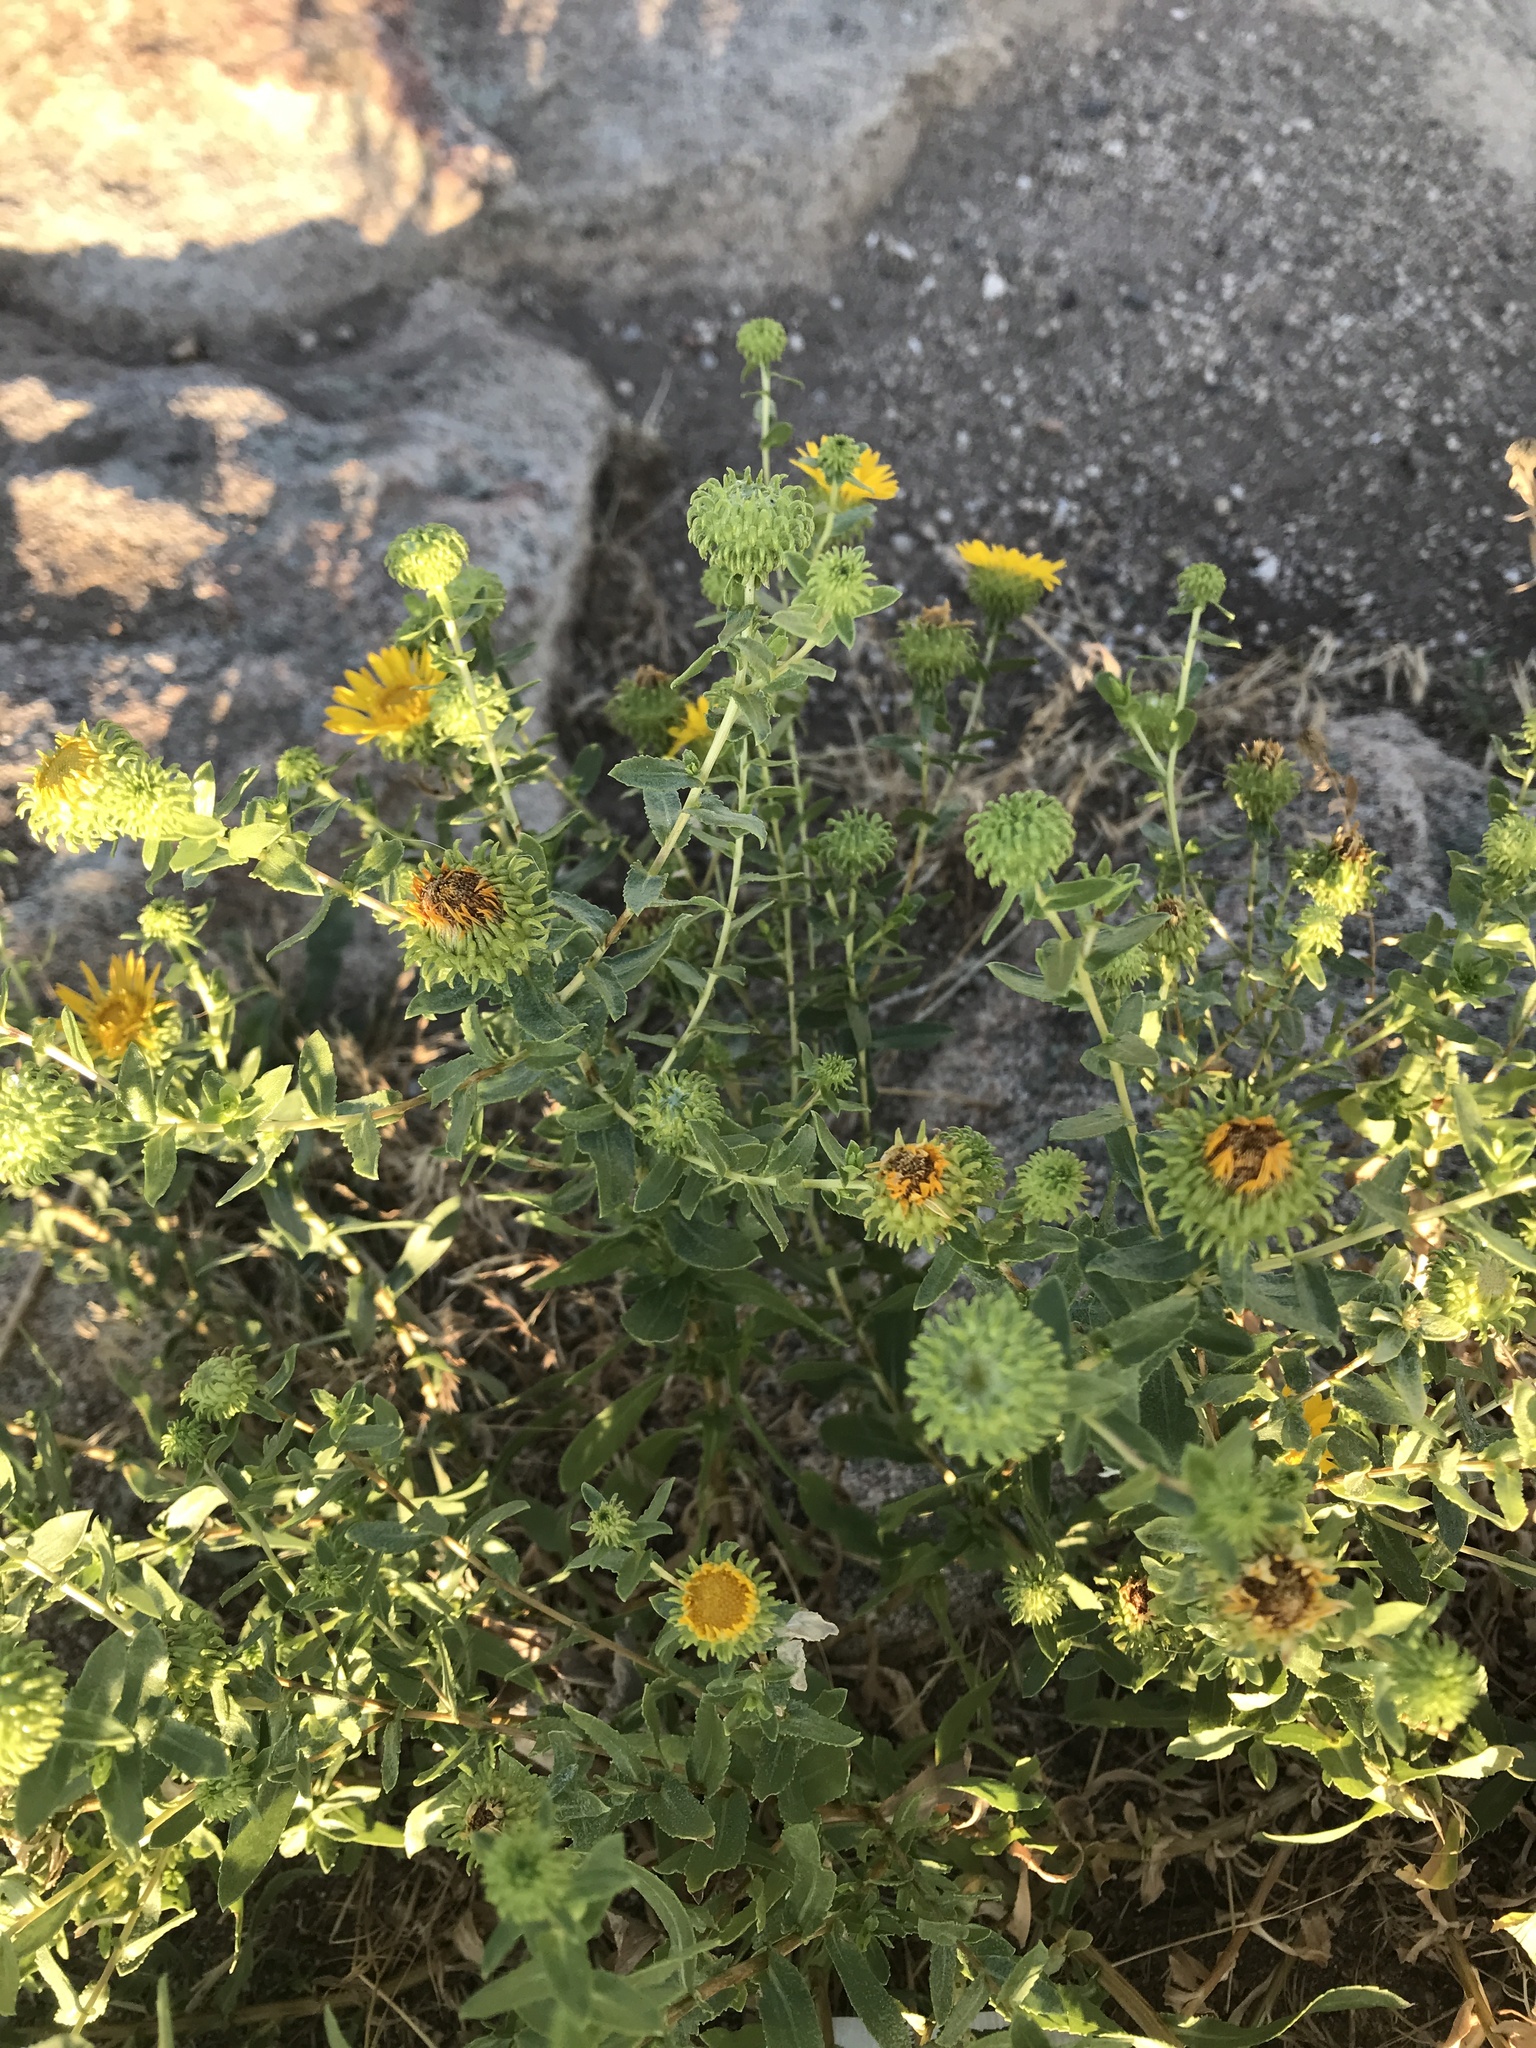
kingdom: Plantae
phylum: Tracheophyta
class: Magnoliopsida
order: Asterales
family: Asteraceae
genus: Grindelia
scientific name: Grindelia squarrosa
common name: Curly-cup gumweed
